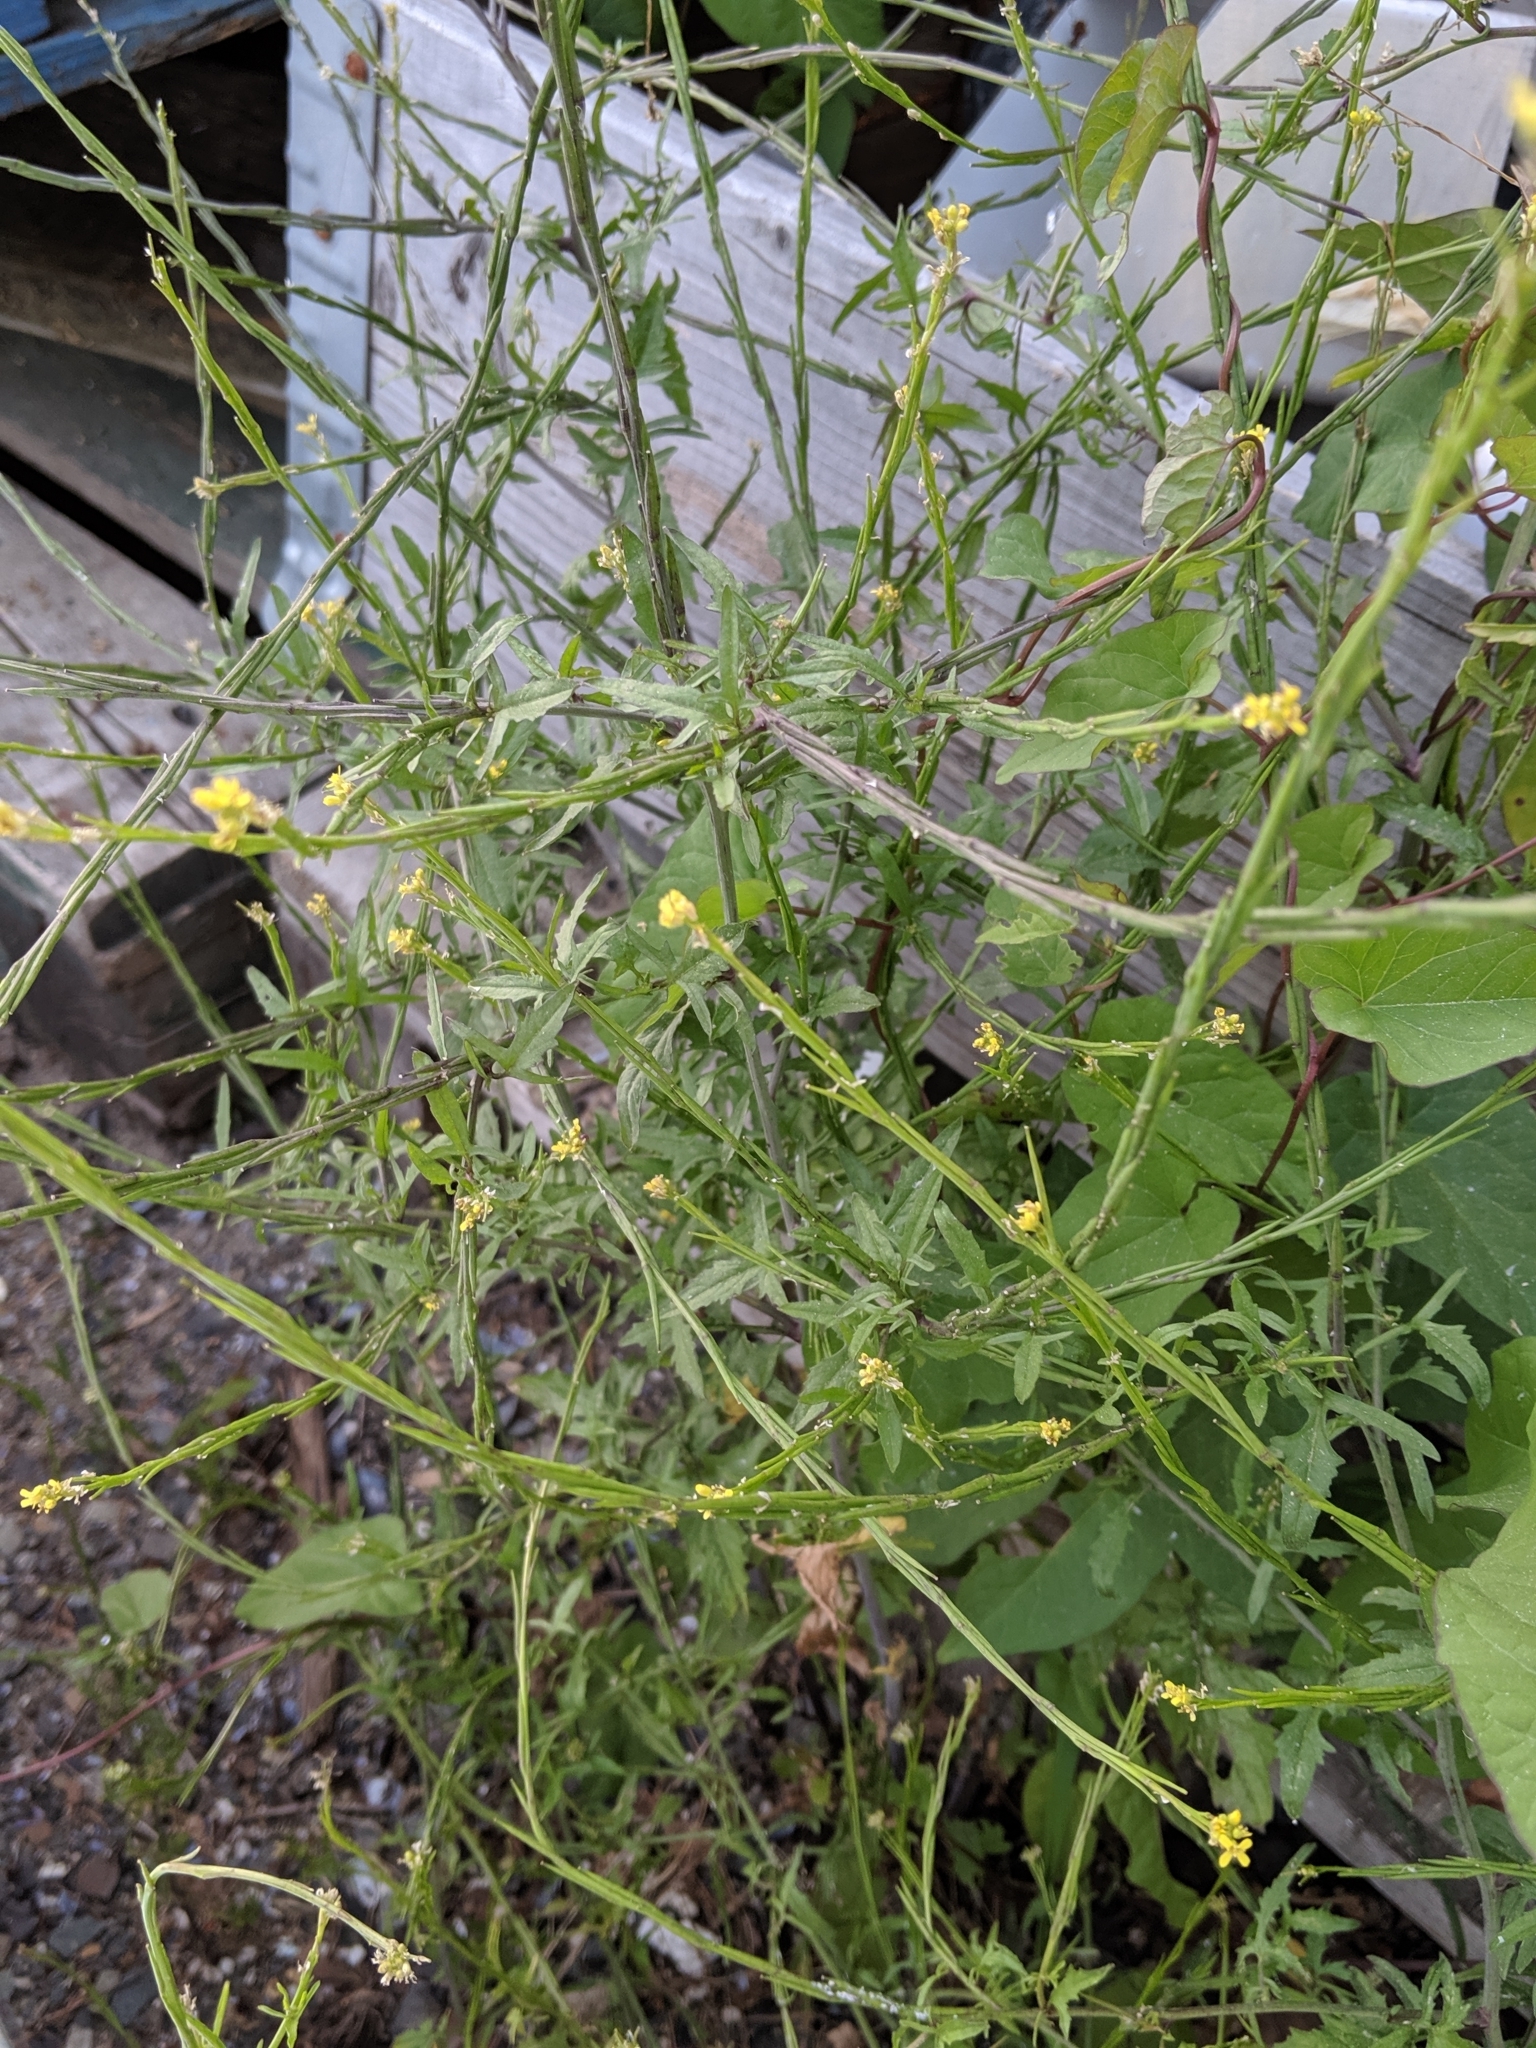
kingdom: Plantae
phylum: Tracheophyta
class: Magnoliopsida
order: Brassicales
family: Brassicaceae
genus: Sisymbrium
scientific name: Sisymbrium officinale
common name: Hedge mustard
